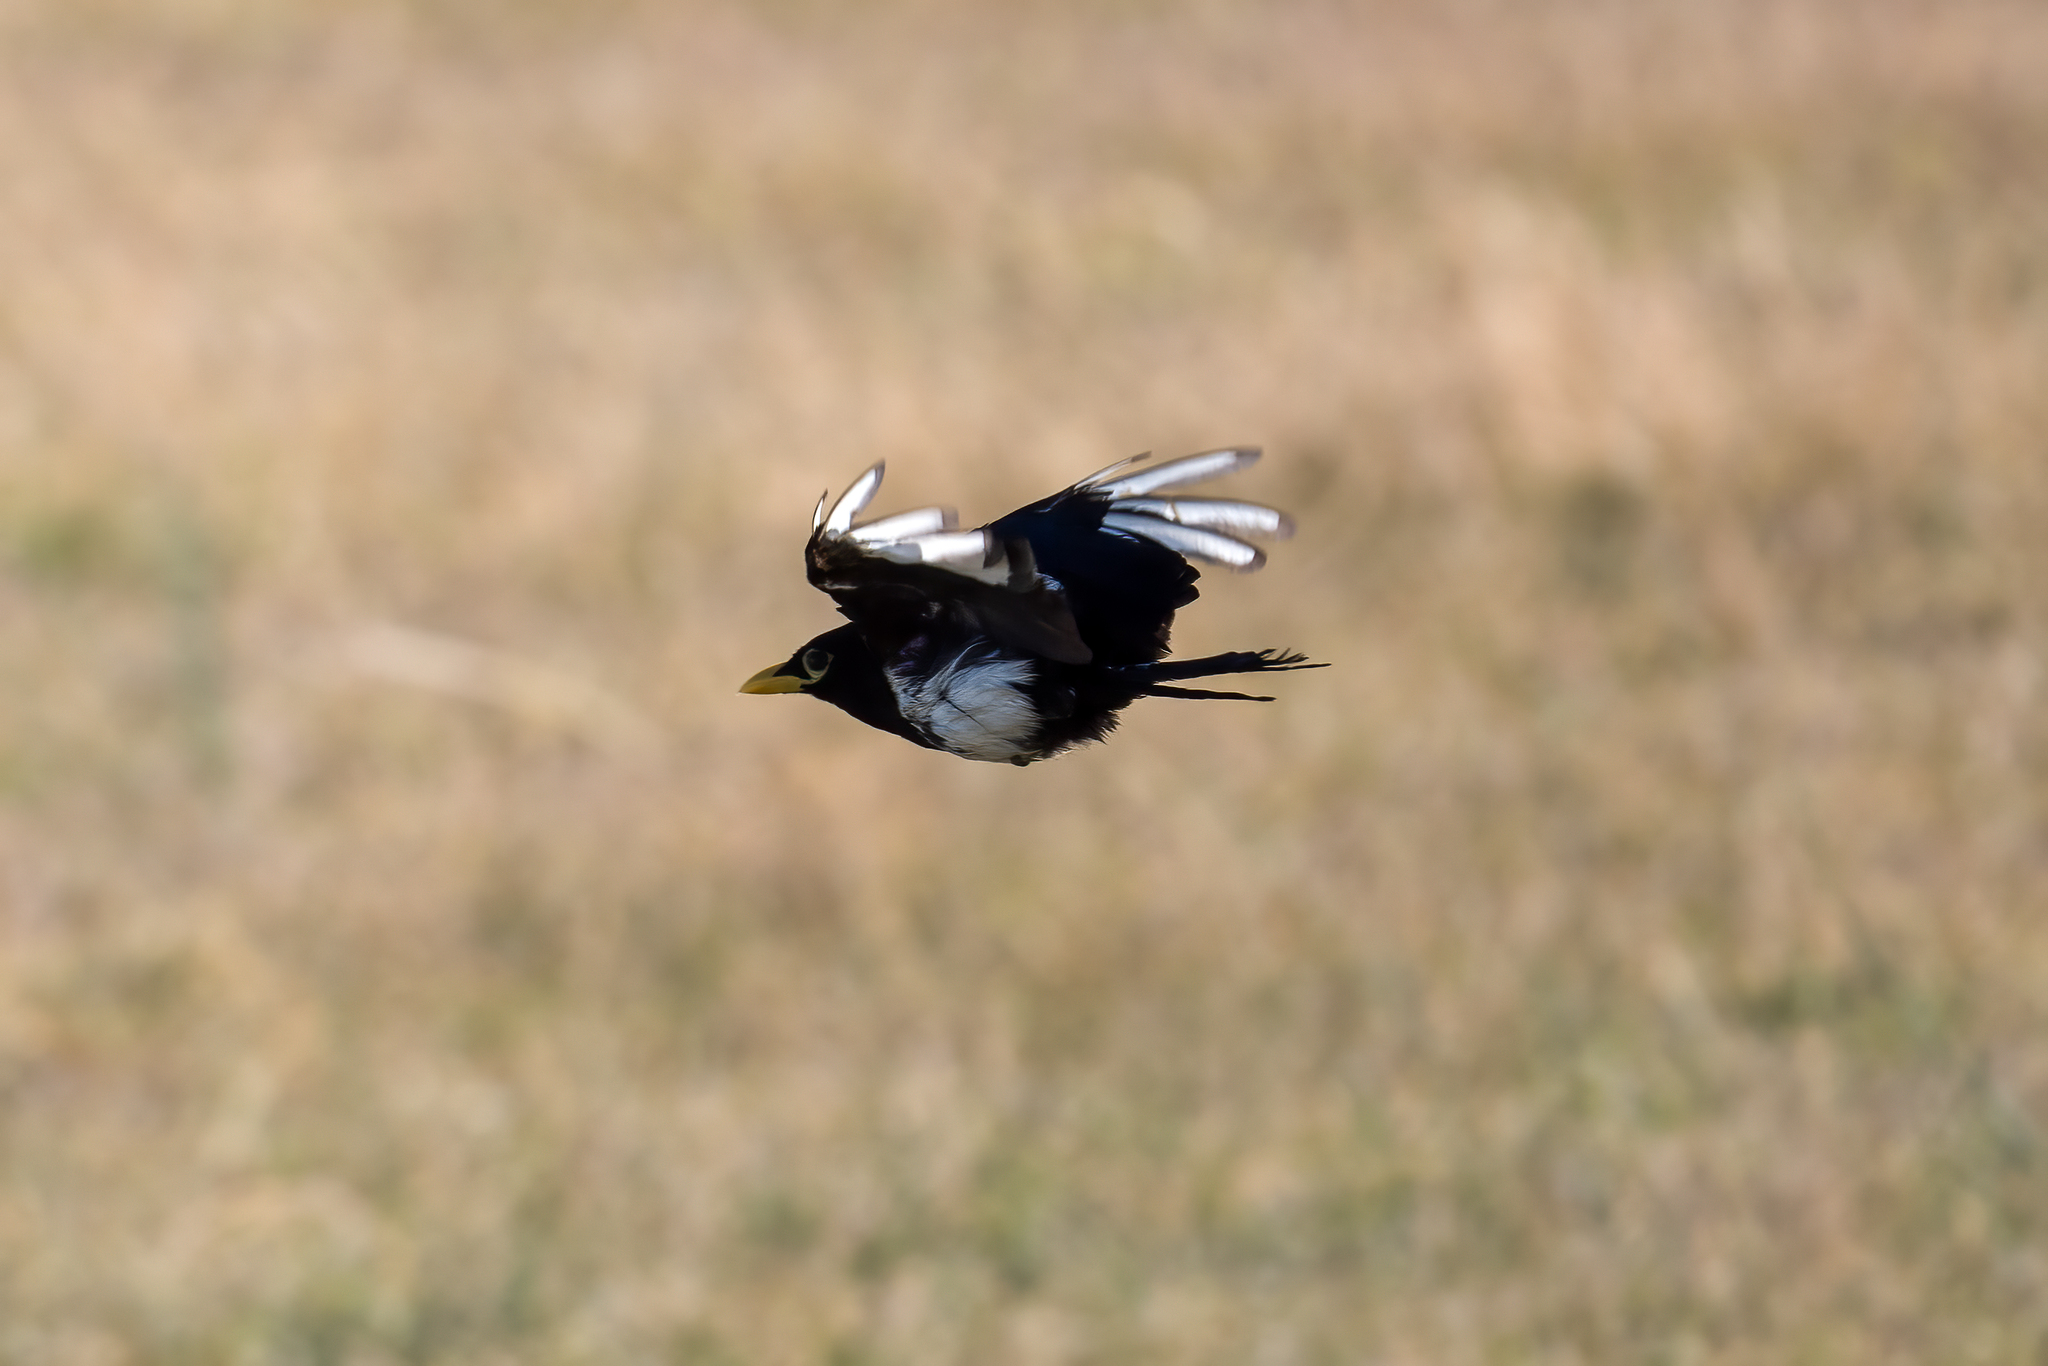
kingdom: Animalia
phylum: Chordata
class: Aves
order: Passeriformes
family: Corvidae
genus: Pica
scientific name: Pica nuttalli
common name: Yellow-billed magpie
